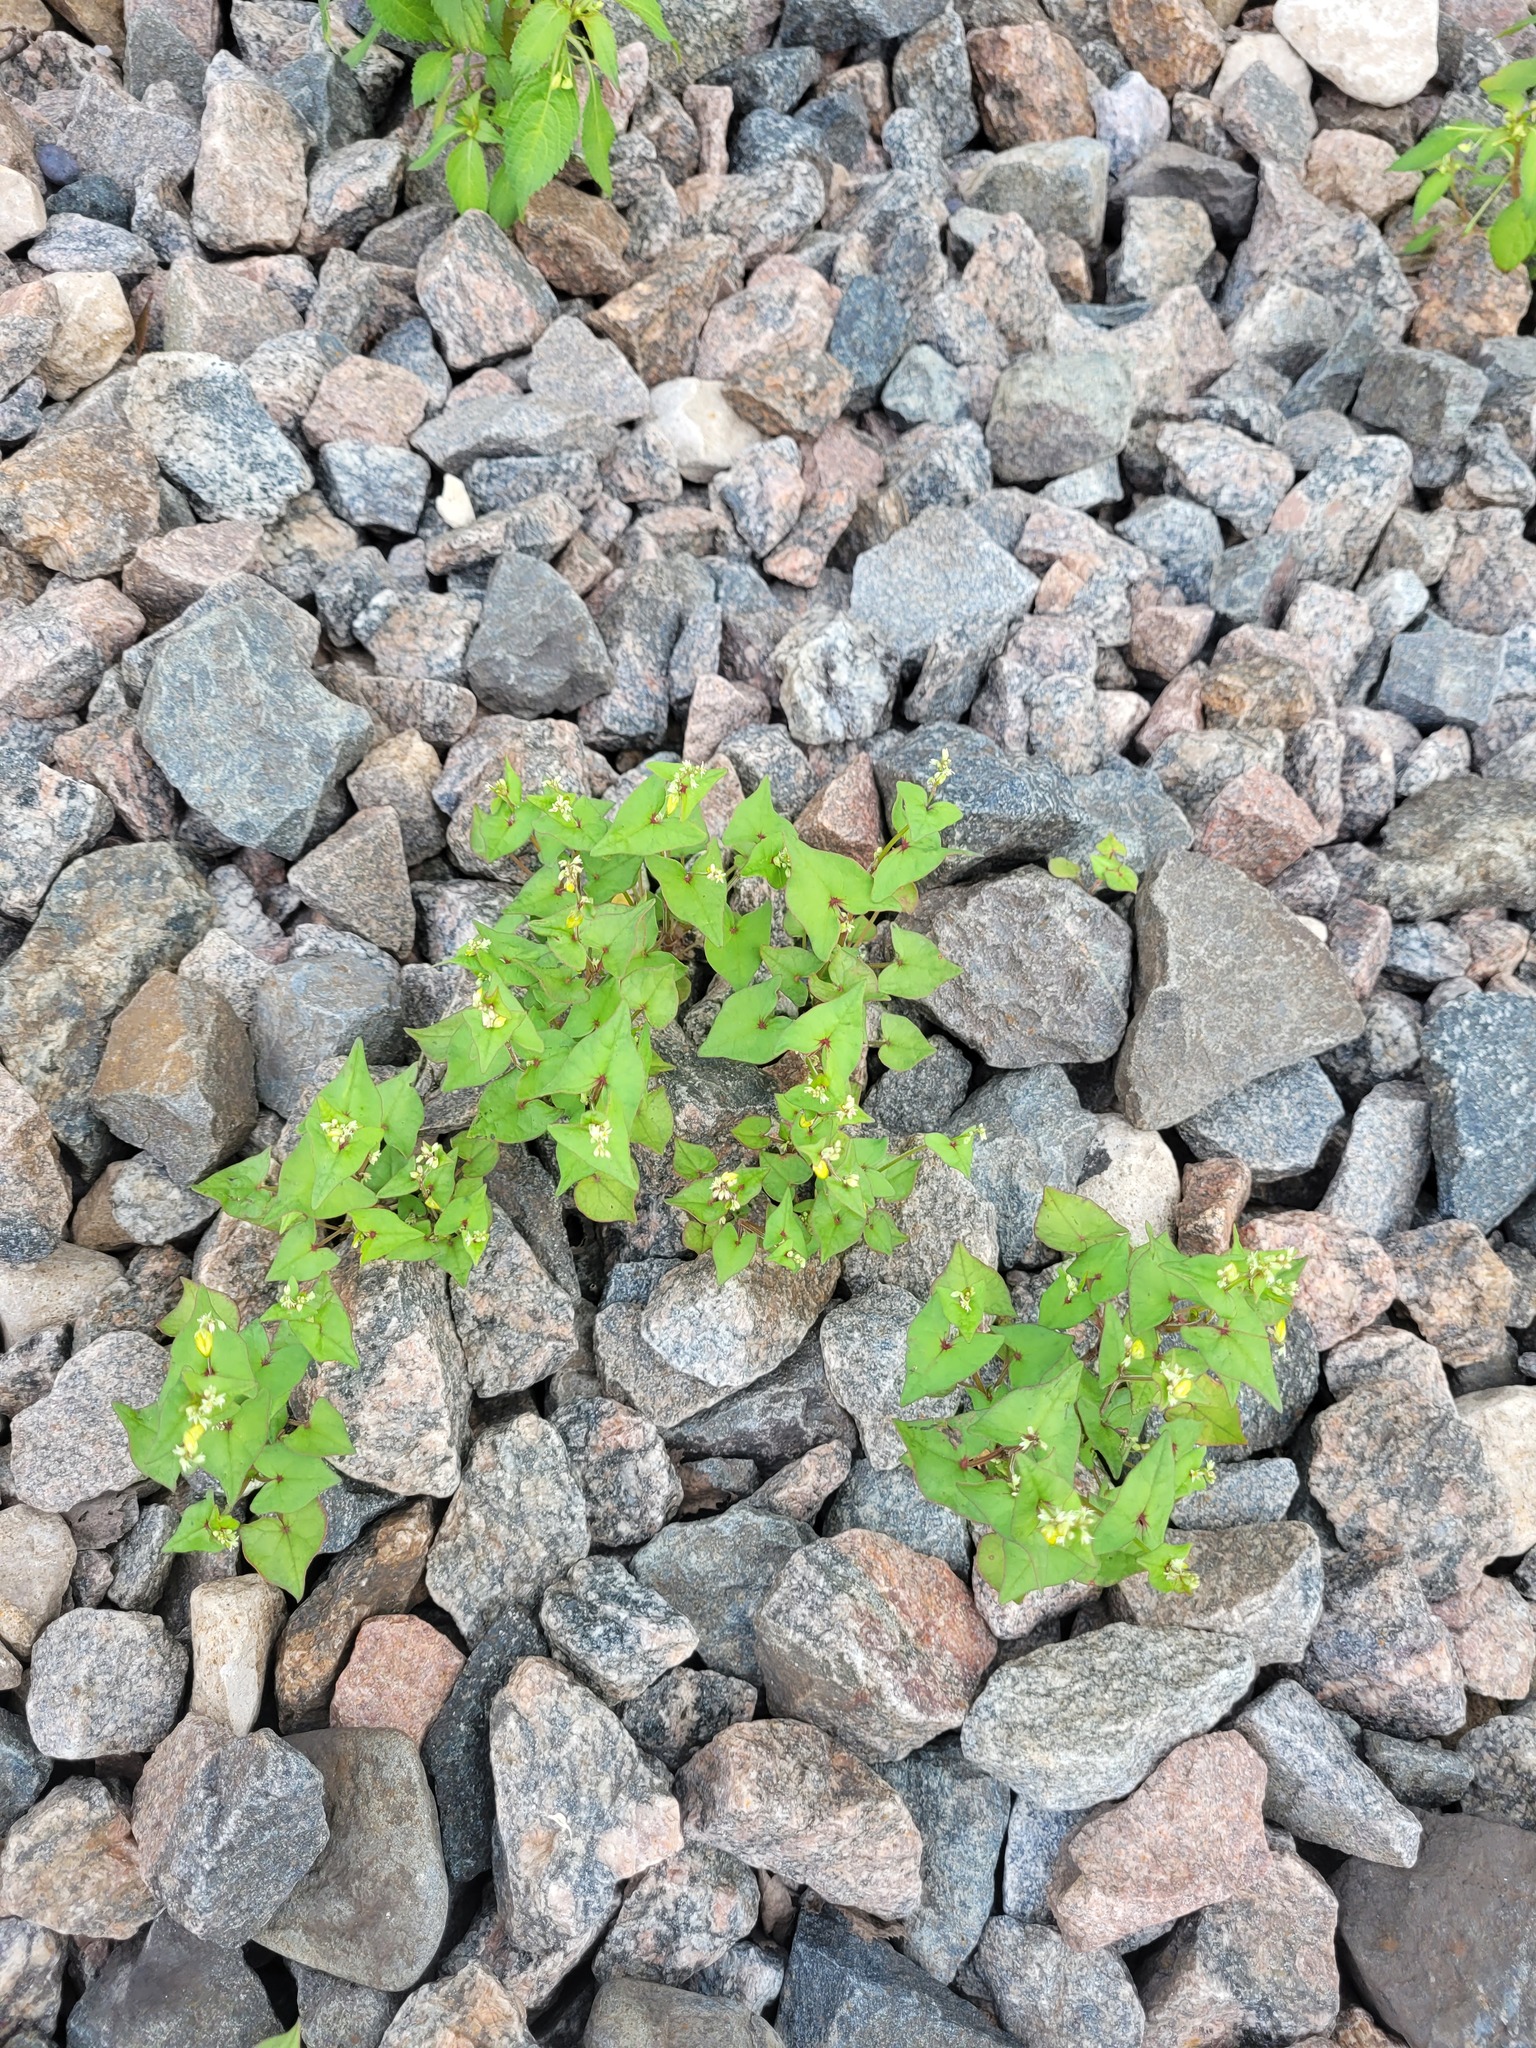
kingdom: Plantae
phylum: Tracheophyta
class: Magnoliopsida
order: Caryophyllales
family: Polygonaceae
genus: Fagopyrum
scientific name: Fagopyrum tataricum
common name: Green buckwheat
